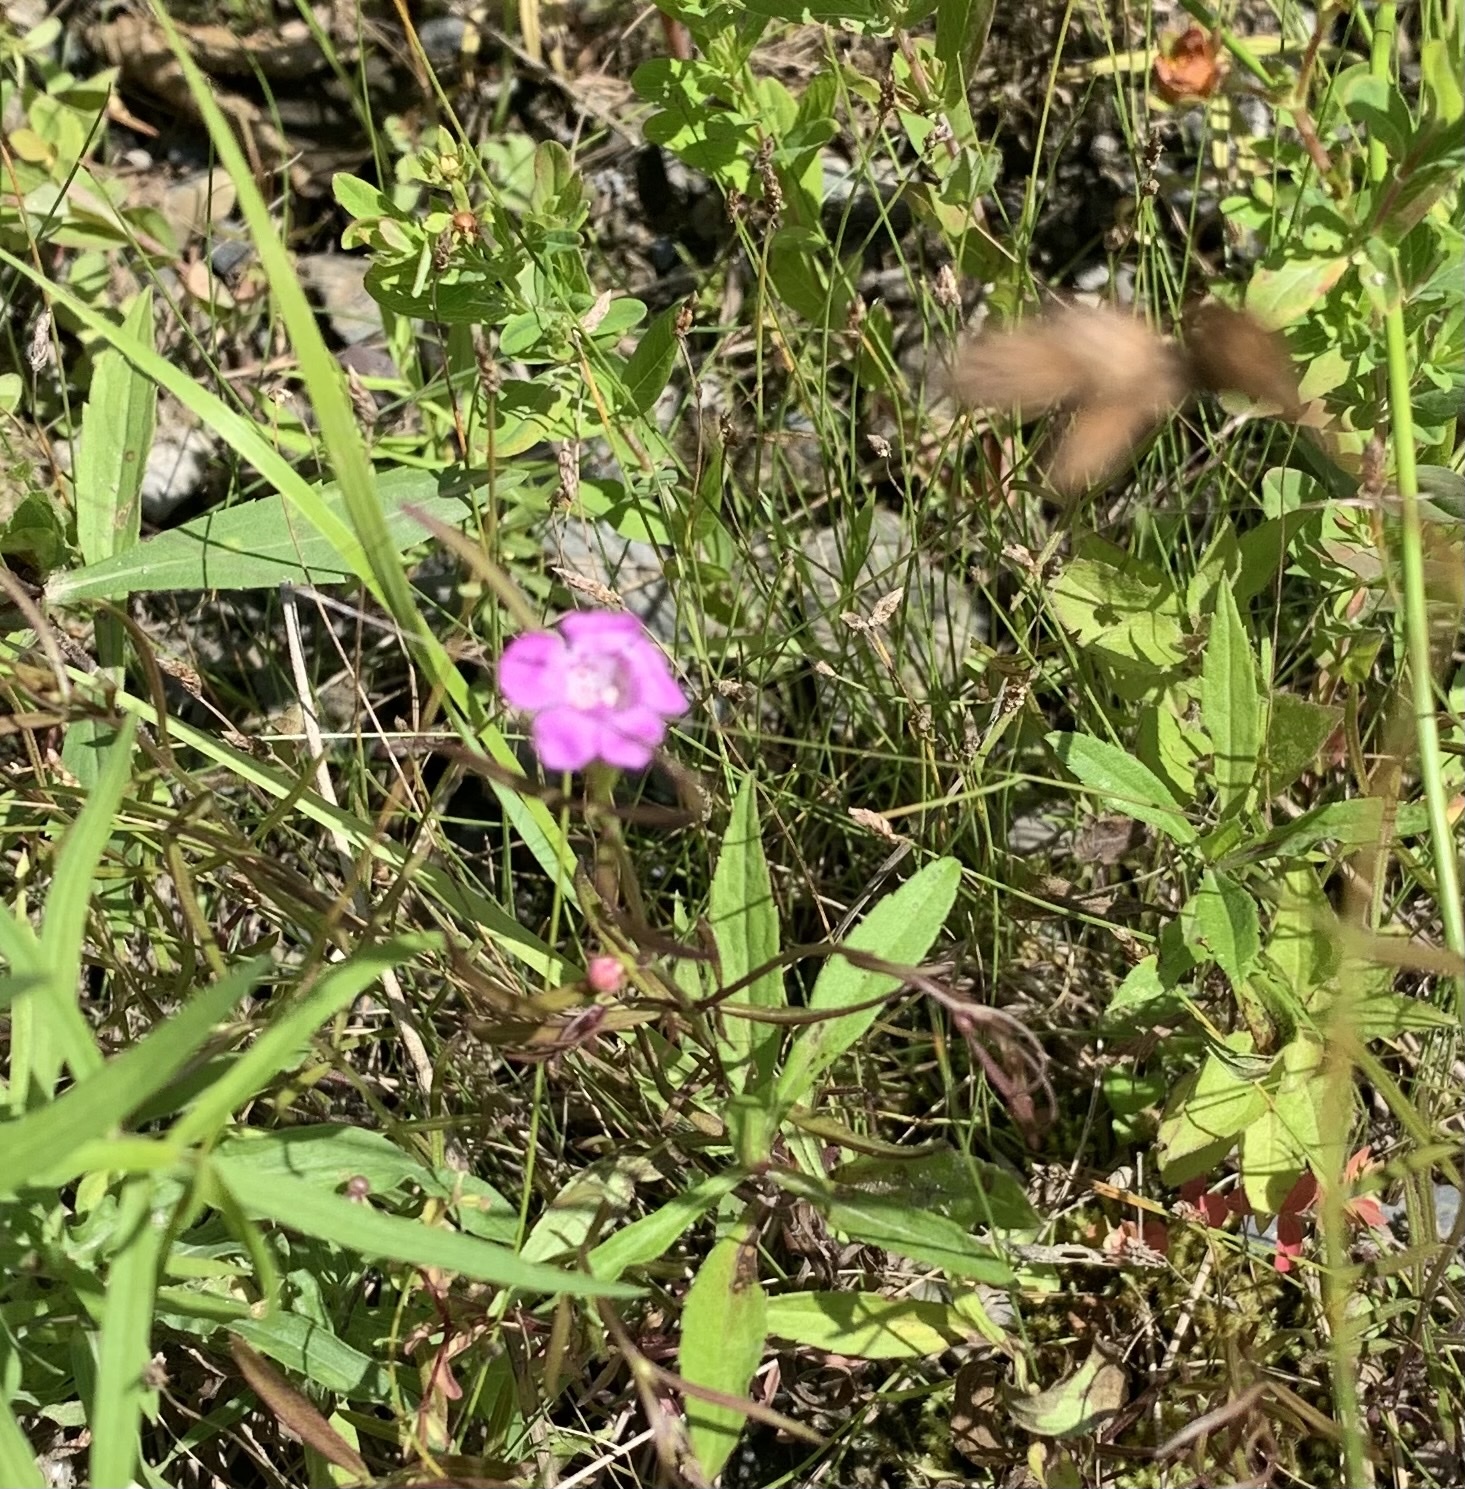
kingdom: Plantae
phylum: Tracheophyta
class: Magnoliopsida
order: Lamiales
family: Orobanchaceae
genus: Agalinis
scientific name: Agalinis purpurea
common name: Purple false foxglove
